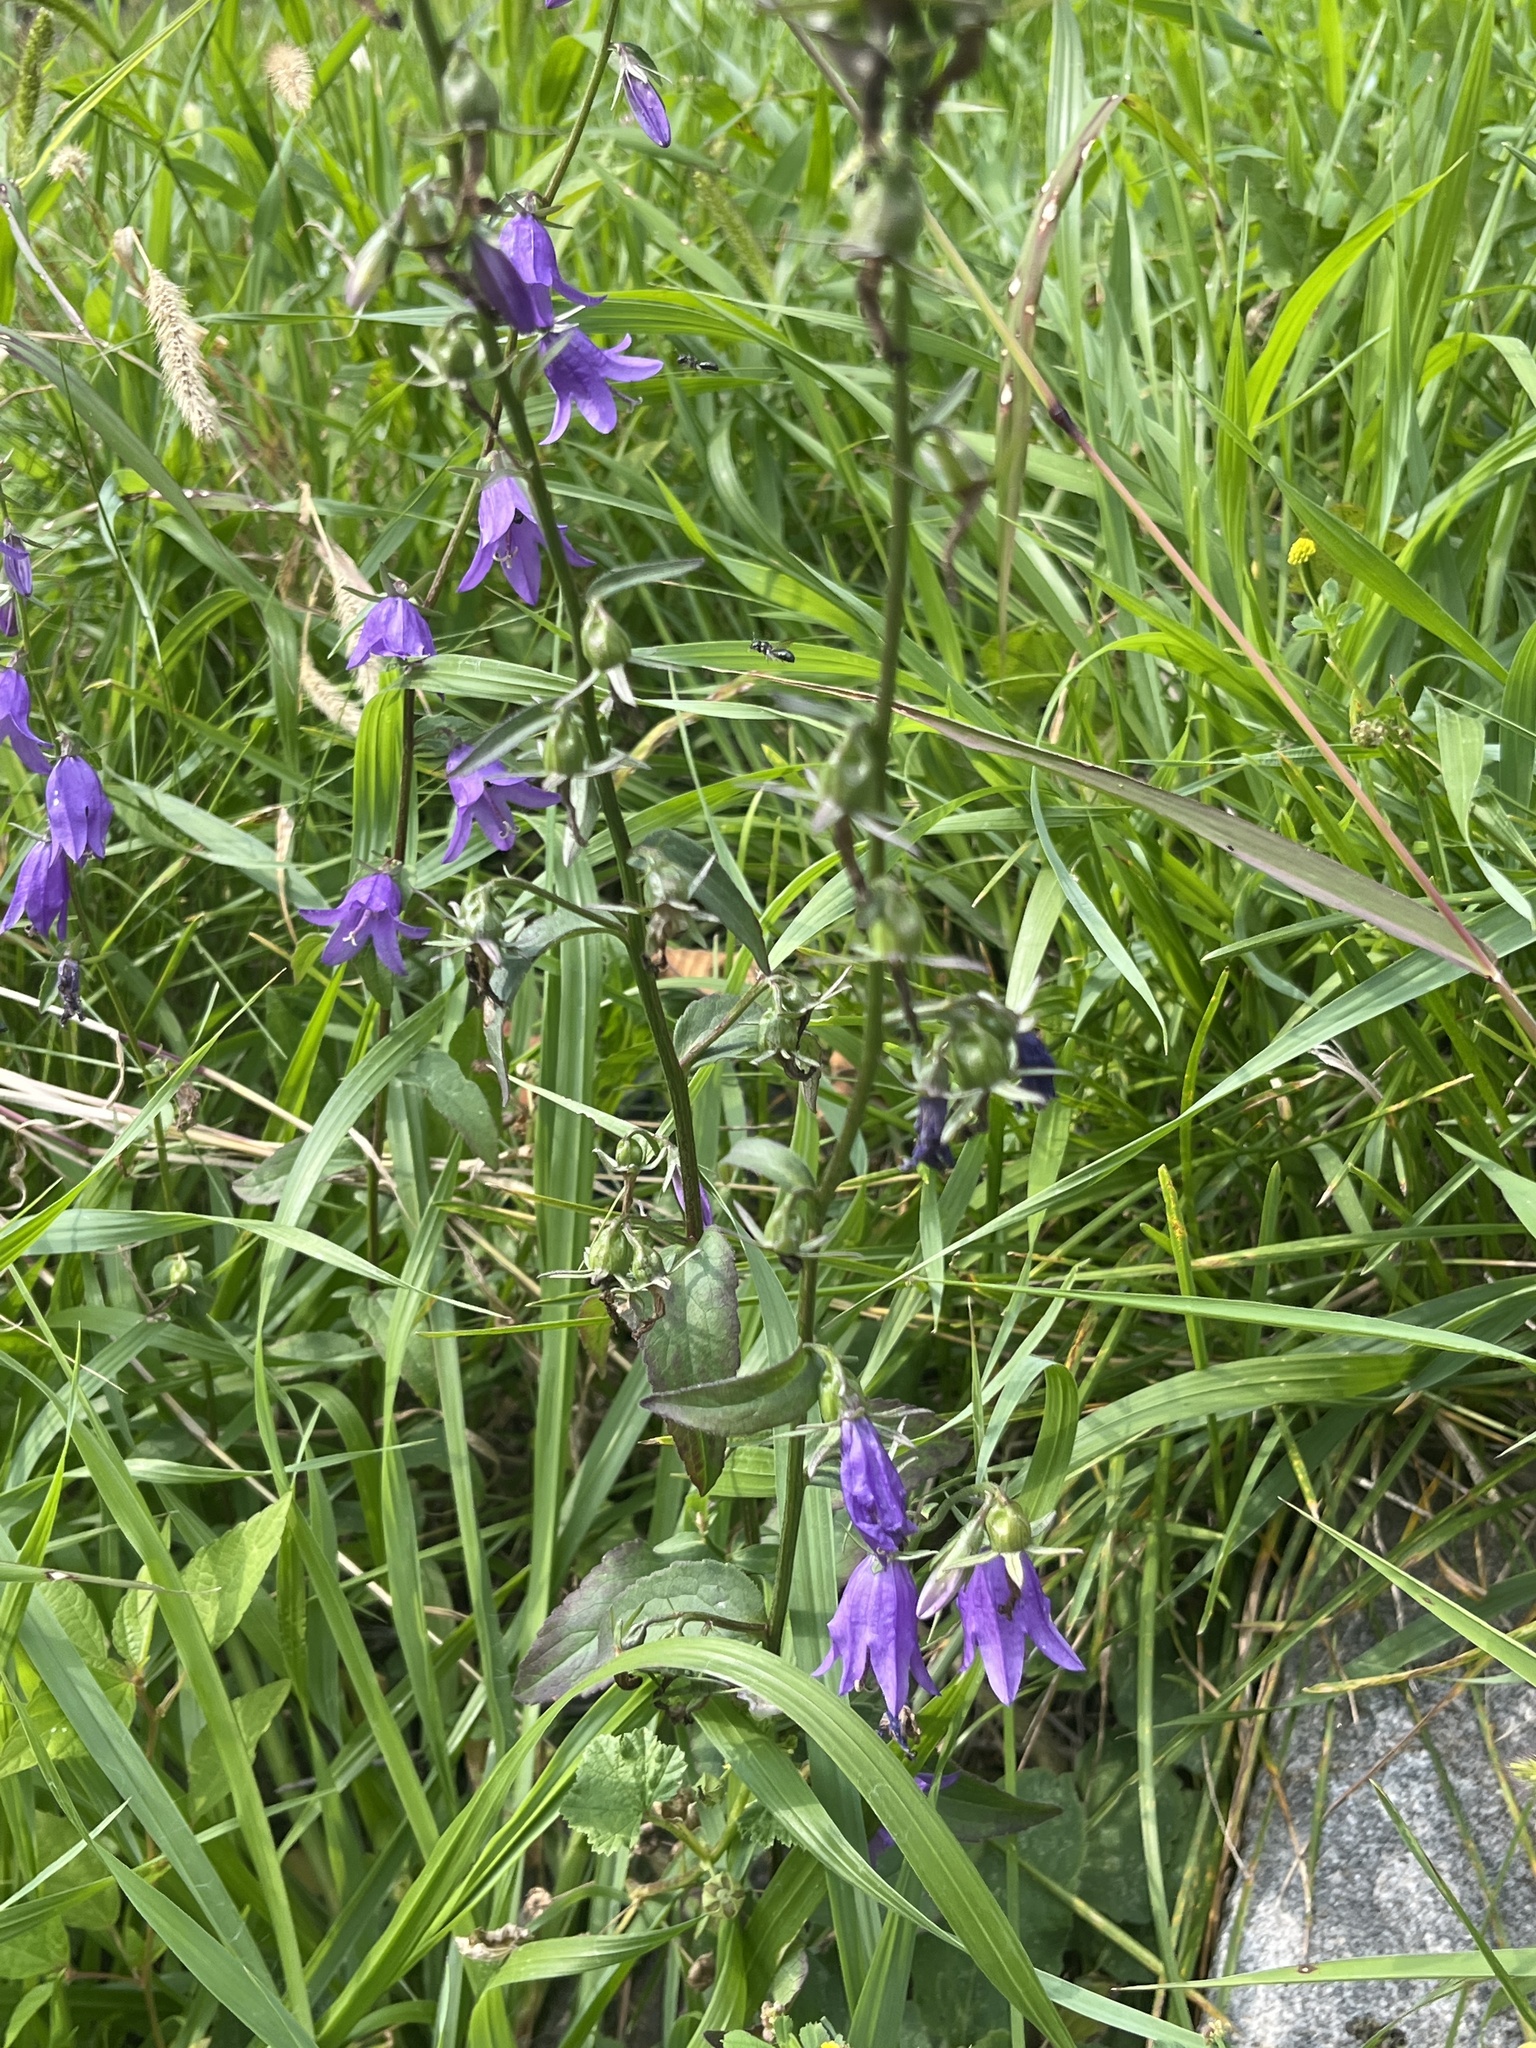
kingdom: Plantae
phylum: Tracheophyta
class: Magnoliopsida
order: Asterales
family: Campanulaceae
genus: Campanula
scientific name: Campanula rapunculoides
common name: Creeping bellflower
